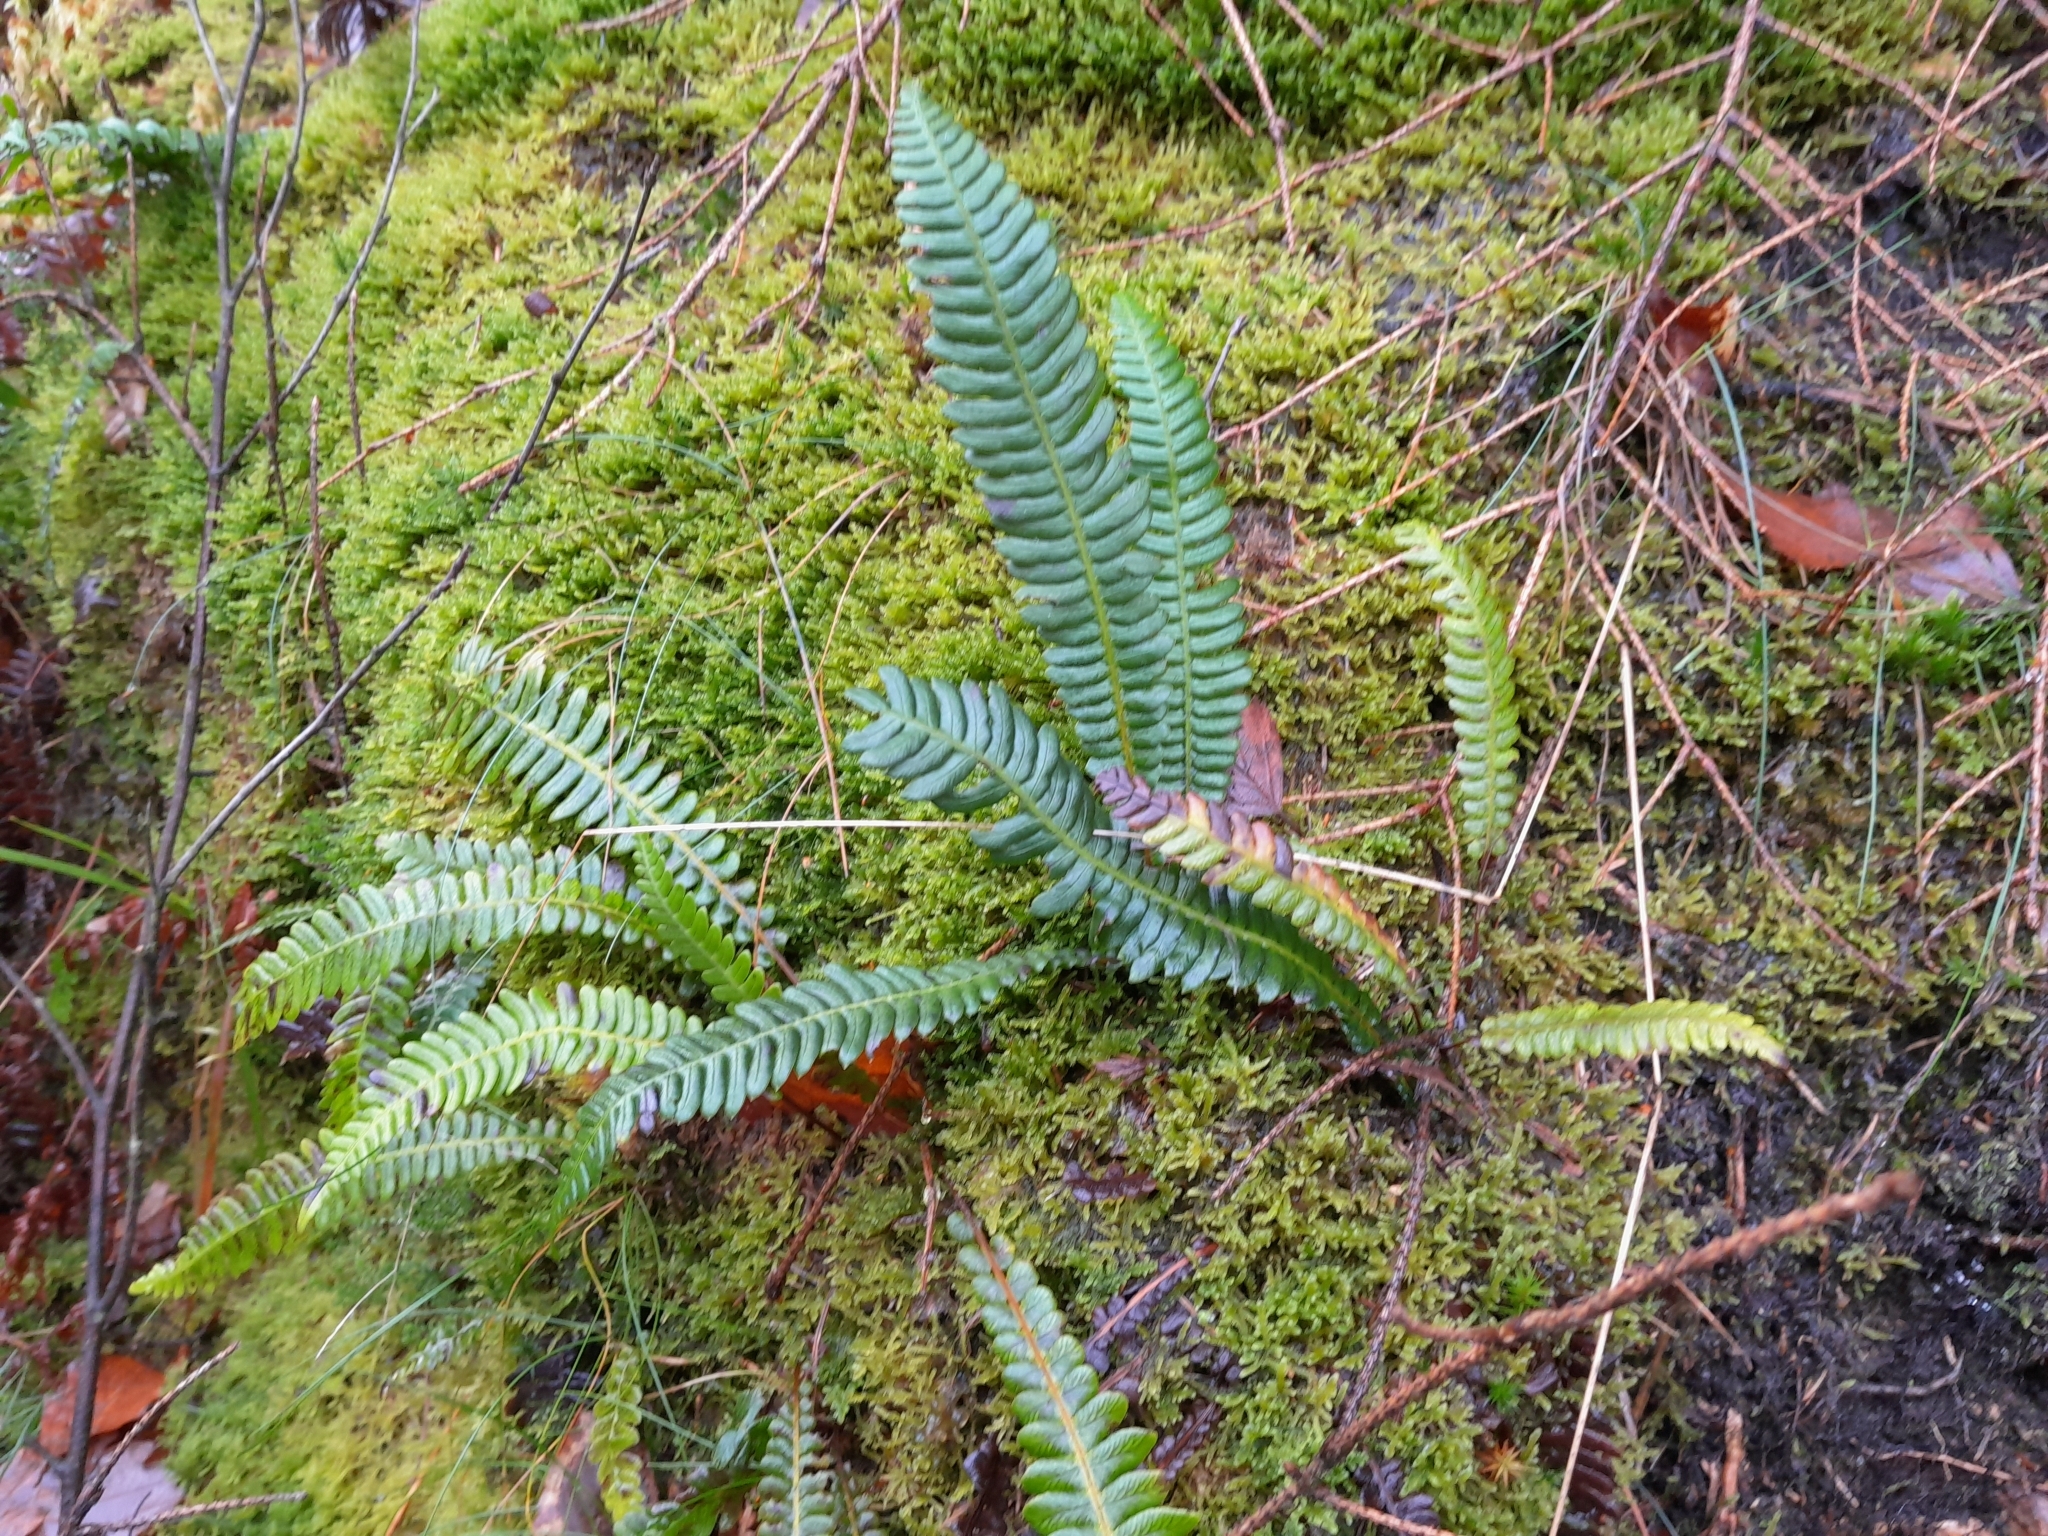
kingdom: Plantae
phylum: Tracheophyta
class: Polypodiopsida
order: Polypodiales
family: Blechnaceae
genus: Struthiopteris
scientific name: Struthiopteris spicant
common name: Deer fern
